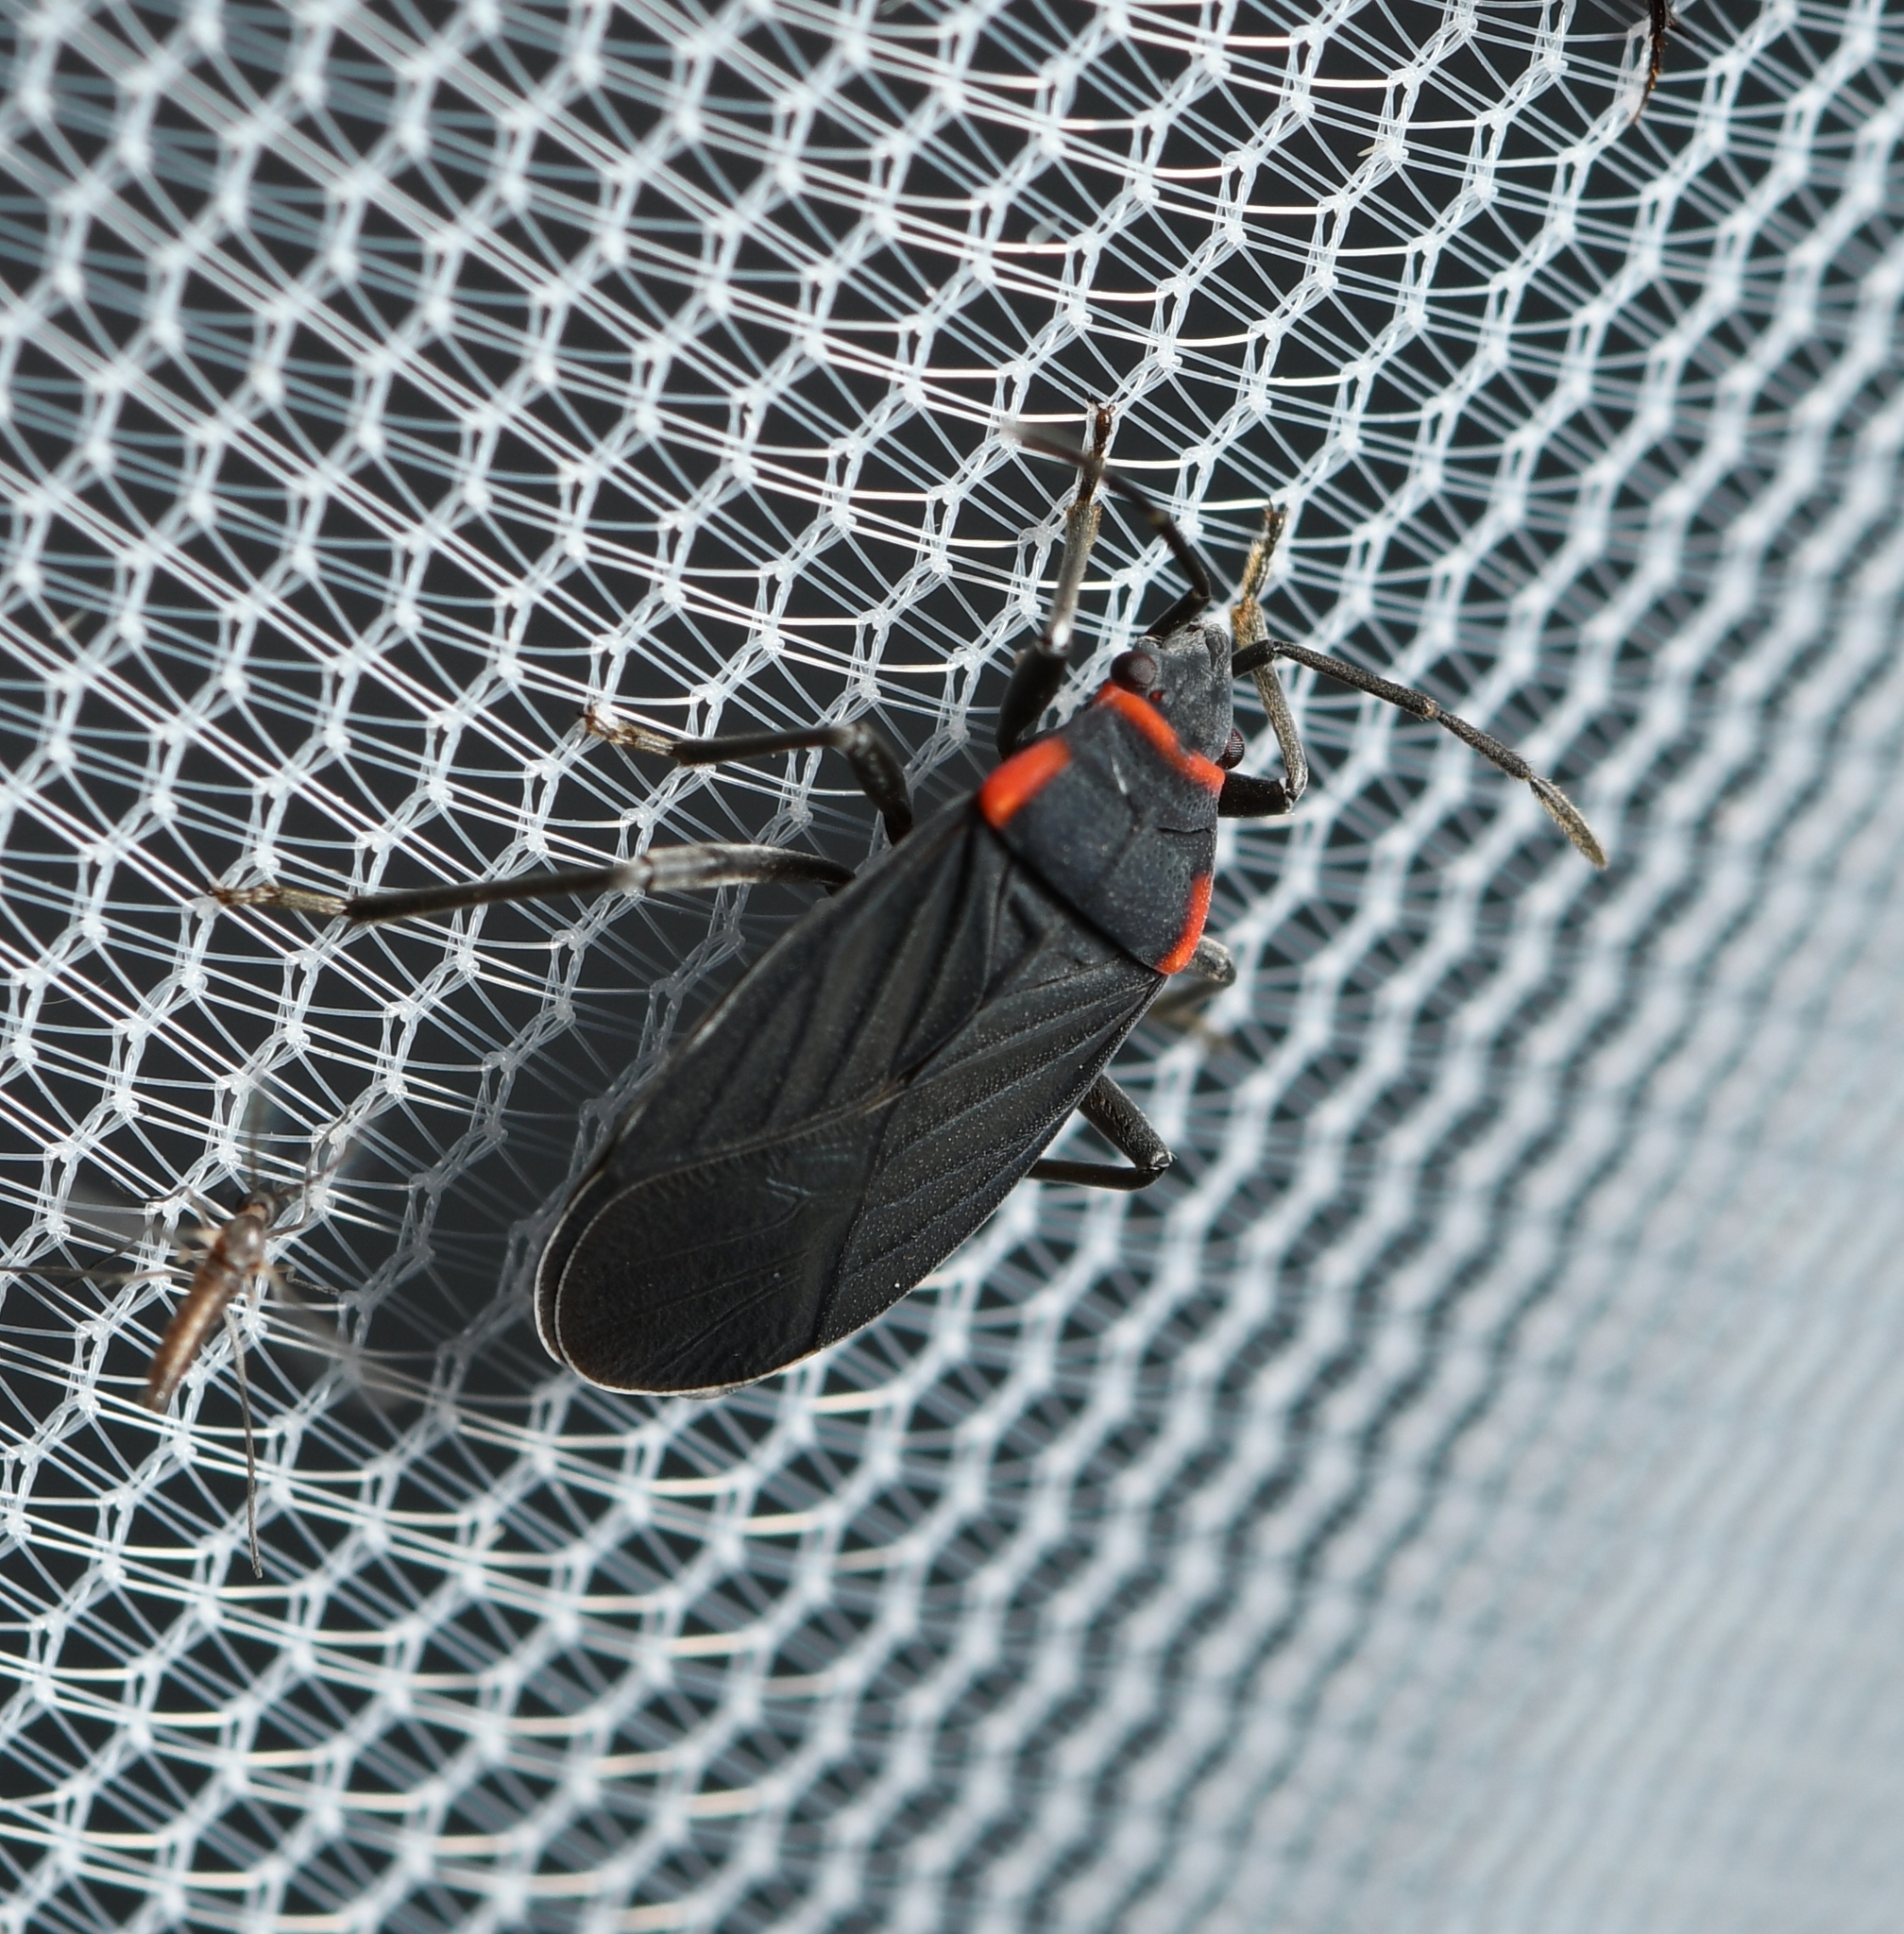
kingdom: Animalia
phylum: Arthropoda
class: Insecta
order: Hemiptera
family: Lygaeidae
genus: Melacoryphus
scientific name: Melacoryphus rubicollis
